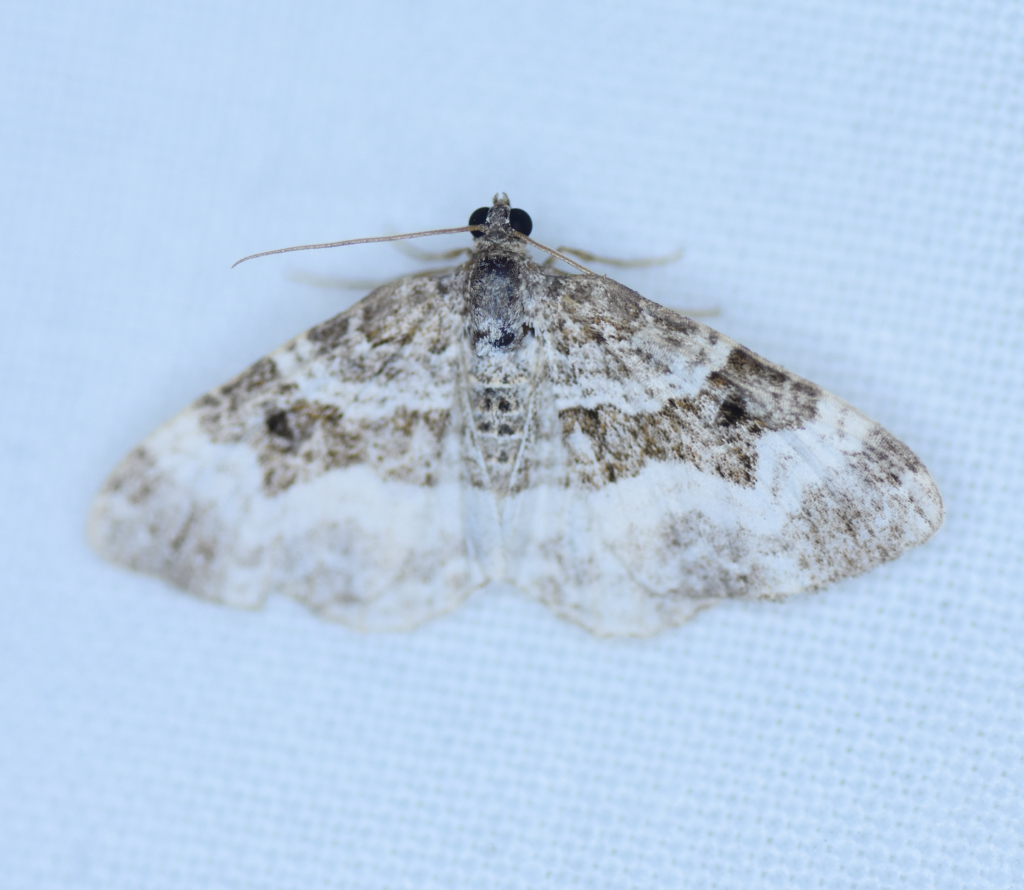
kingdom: Animalia
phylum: Arthropoda
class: Insecta
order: Lepidoptera
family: Geometridae
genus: Epirrhoe
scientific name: Epirrhoe alternata
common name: Common carpet
